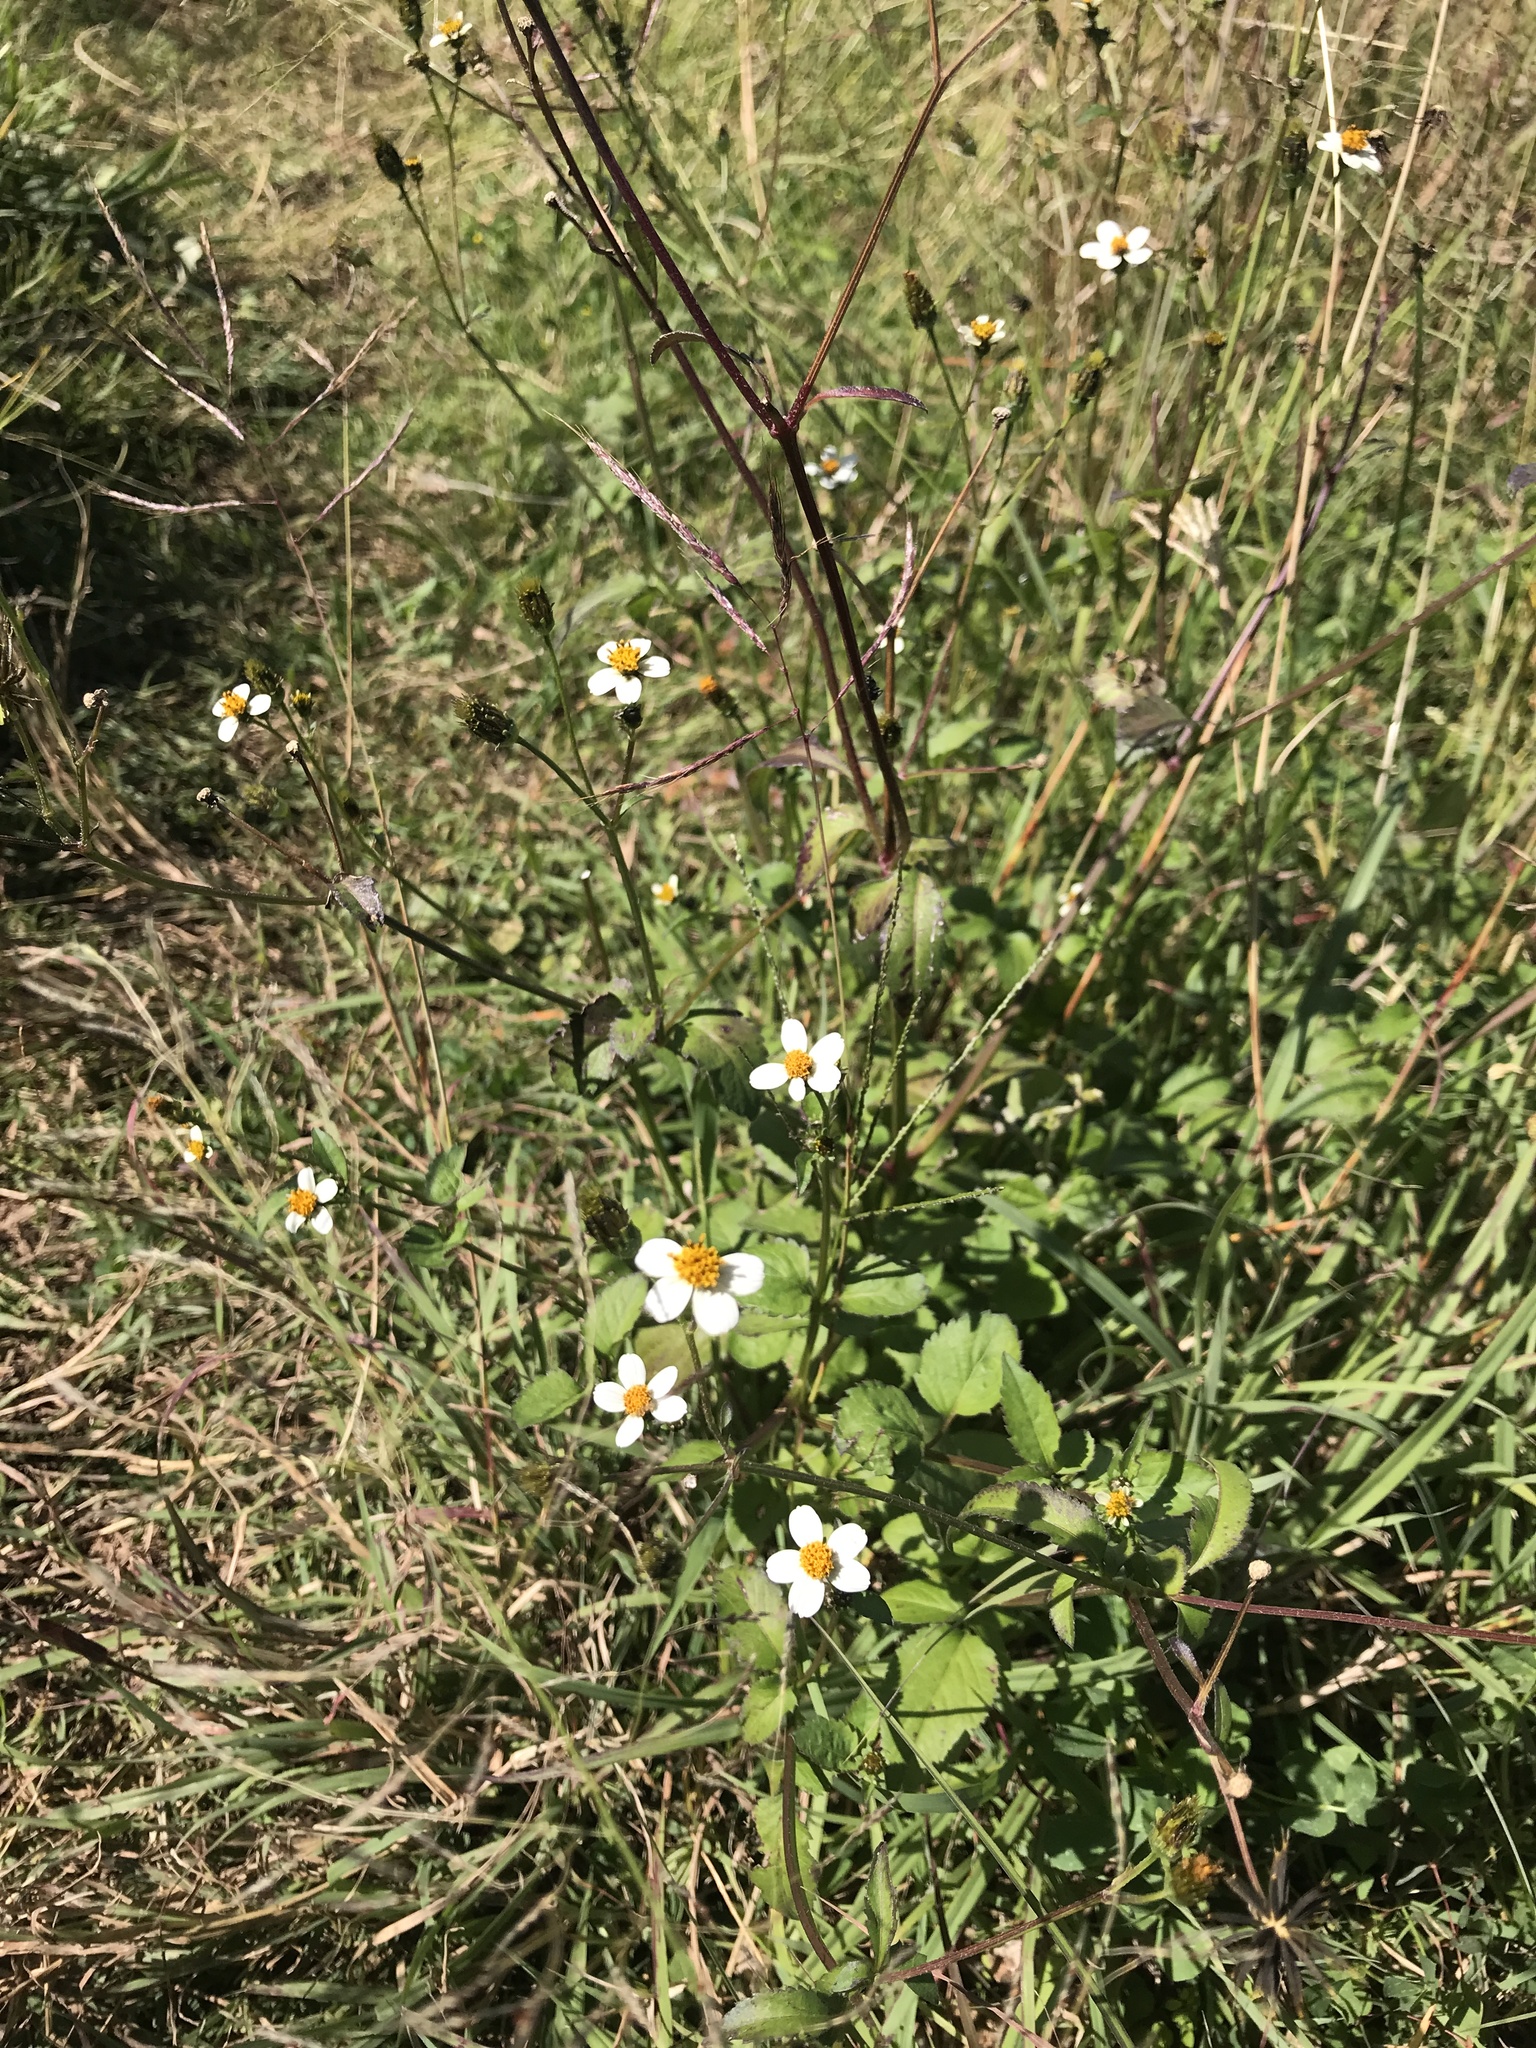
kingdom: Plantae
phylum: Tracheophyta
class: Magnoliopsida
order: Asterales
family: Asteraceae
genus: Bidens
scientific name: Bidens alba
